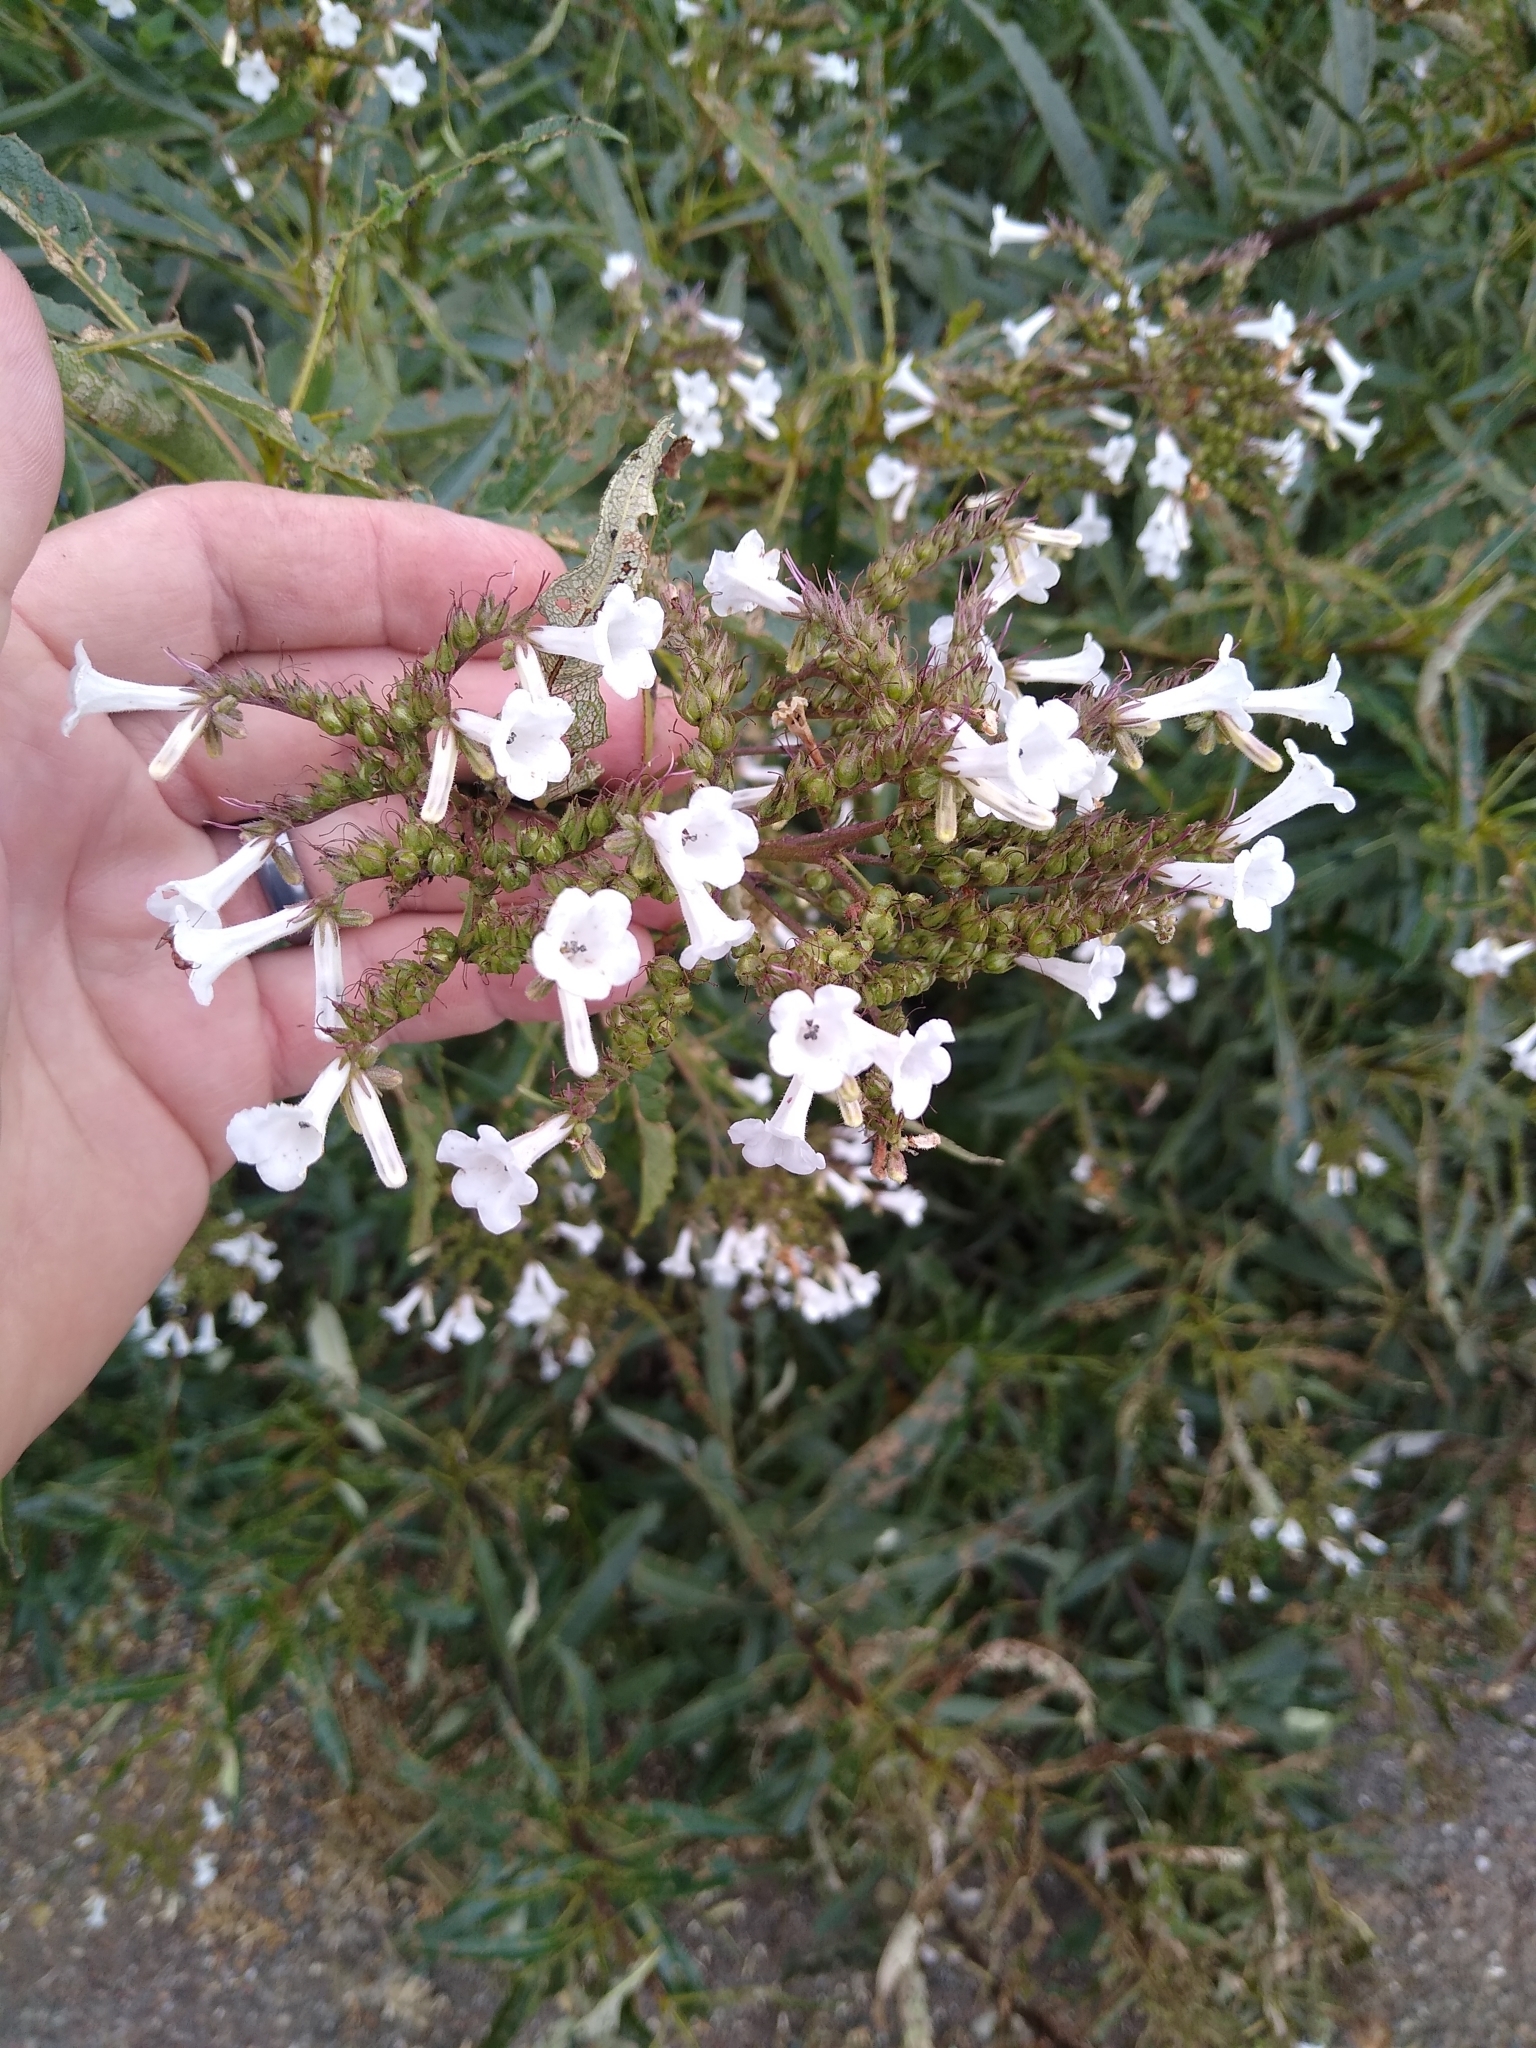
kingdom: Plantae
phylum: Tracheophyta
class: Magnoliopsida
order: Boraginales
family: Namaceae
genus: Eriodictyon
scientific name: Eriodictyon californicum
